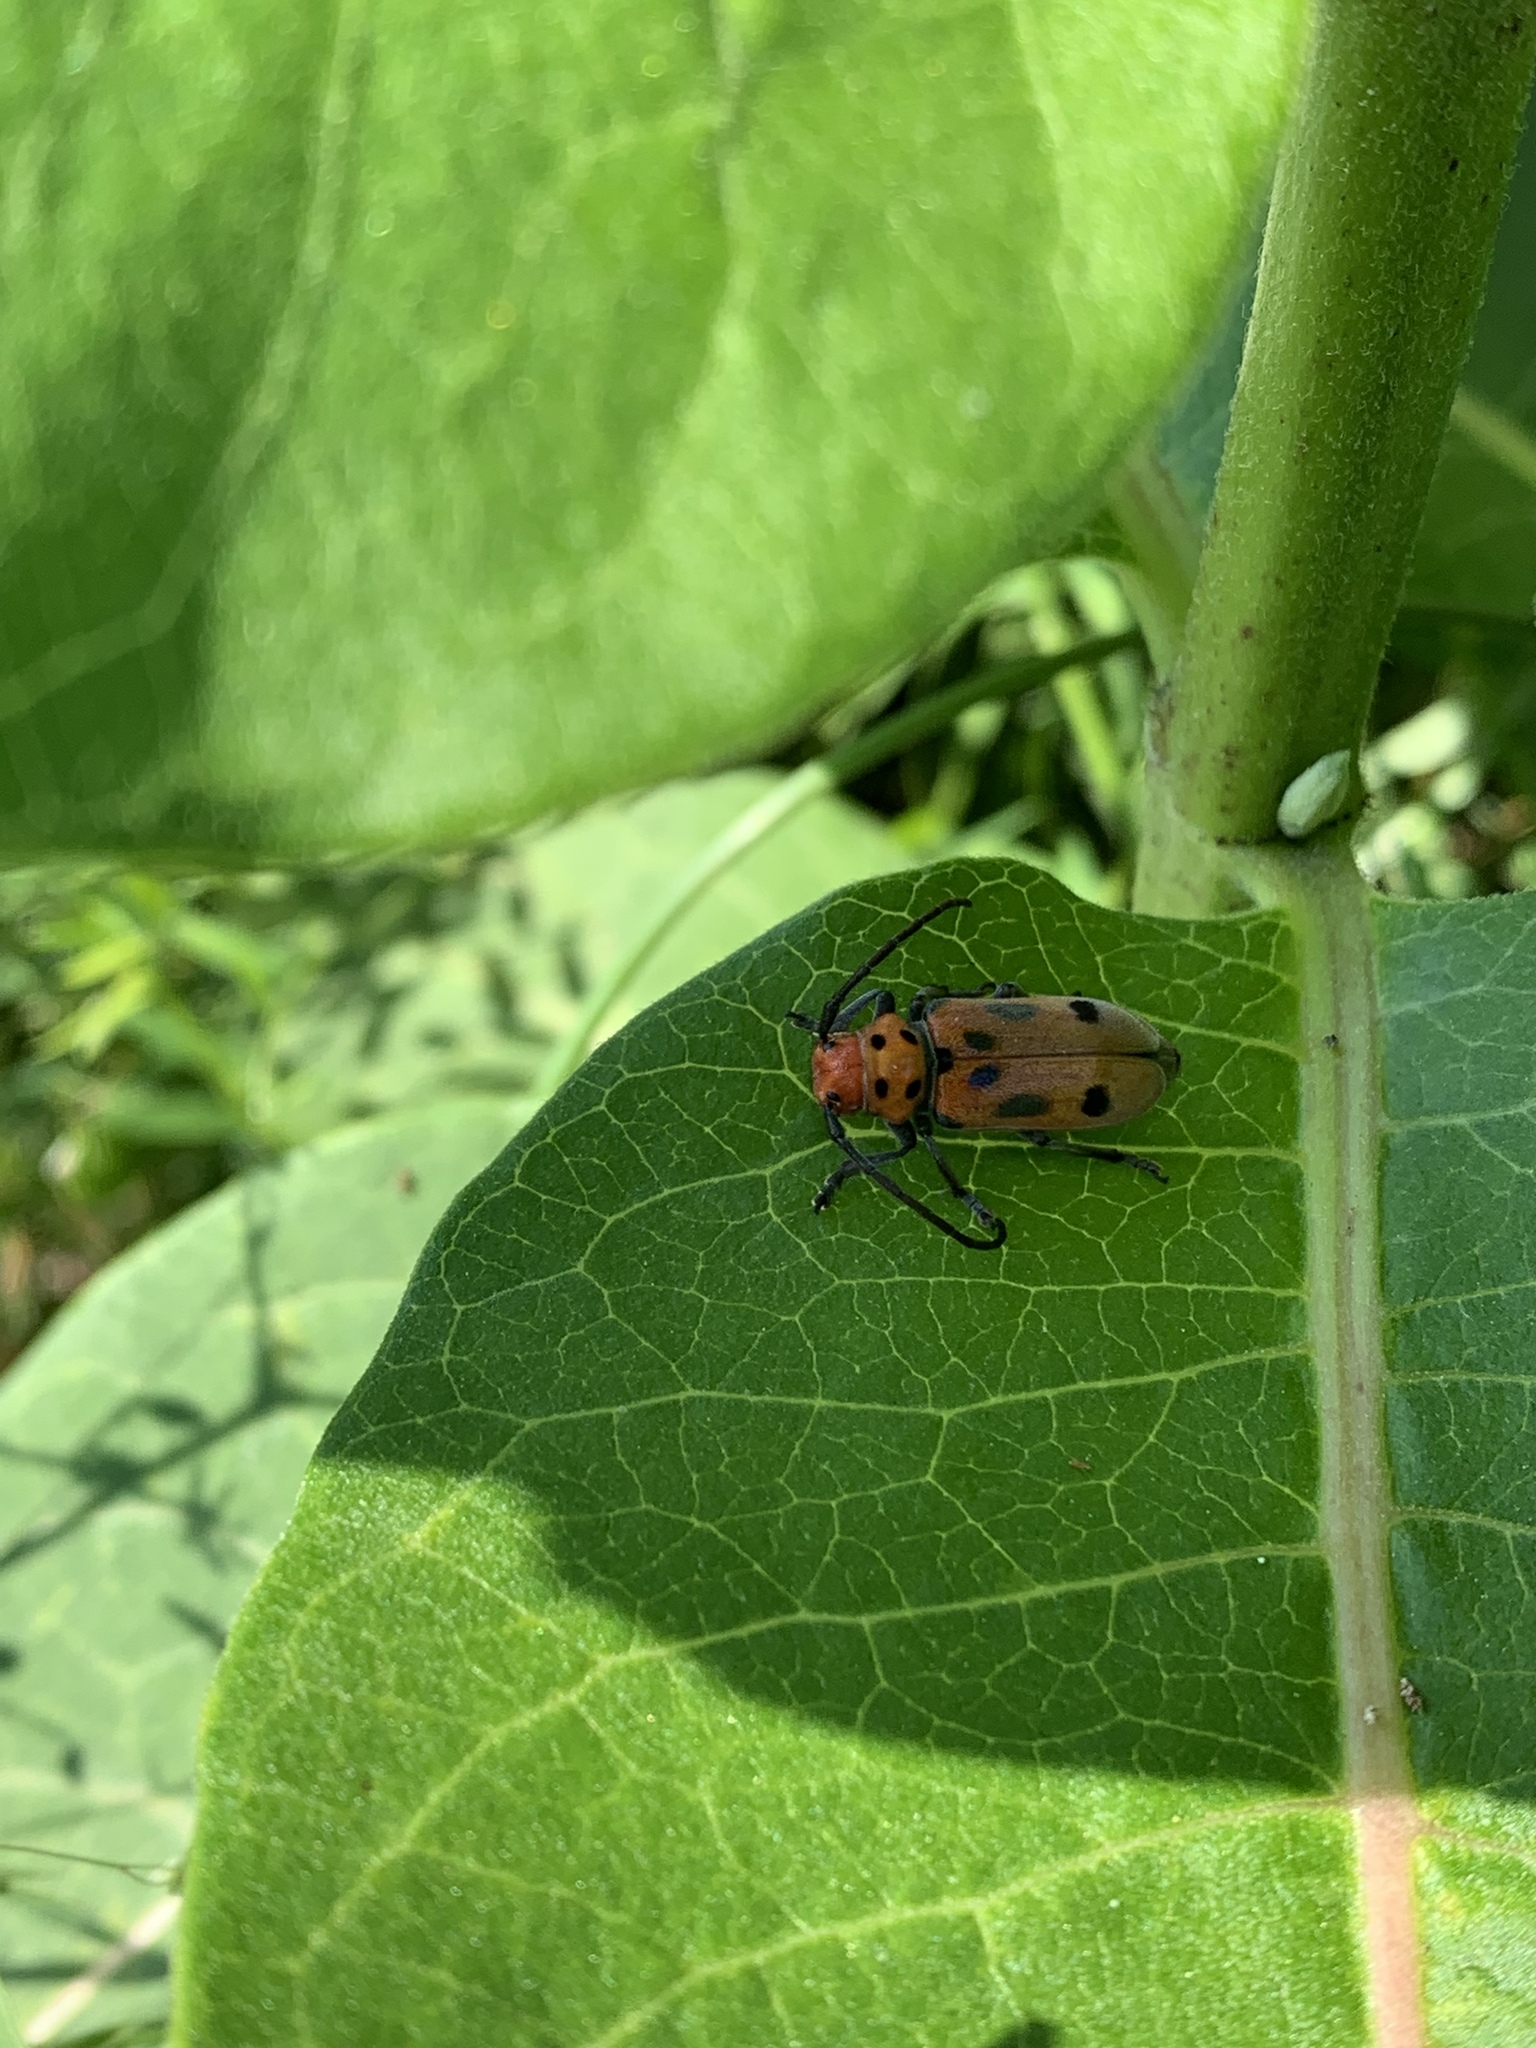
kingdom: Animalia
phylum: Arthropoda
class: Insecta
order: Coleoptera
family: Cerambycidae
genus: Tetraopes
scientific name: Tetraopes tetrophthalmus
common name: Red milkweed beetle
